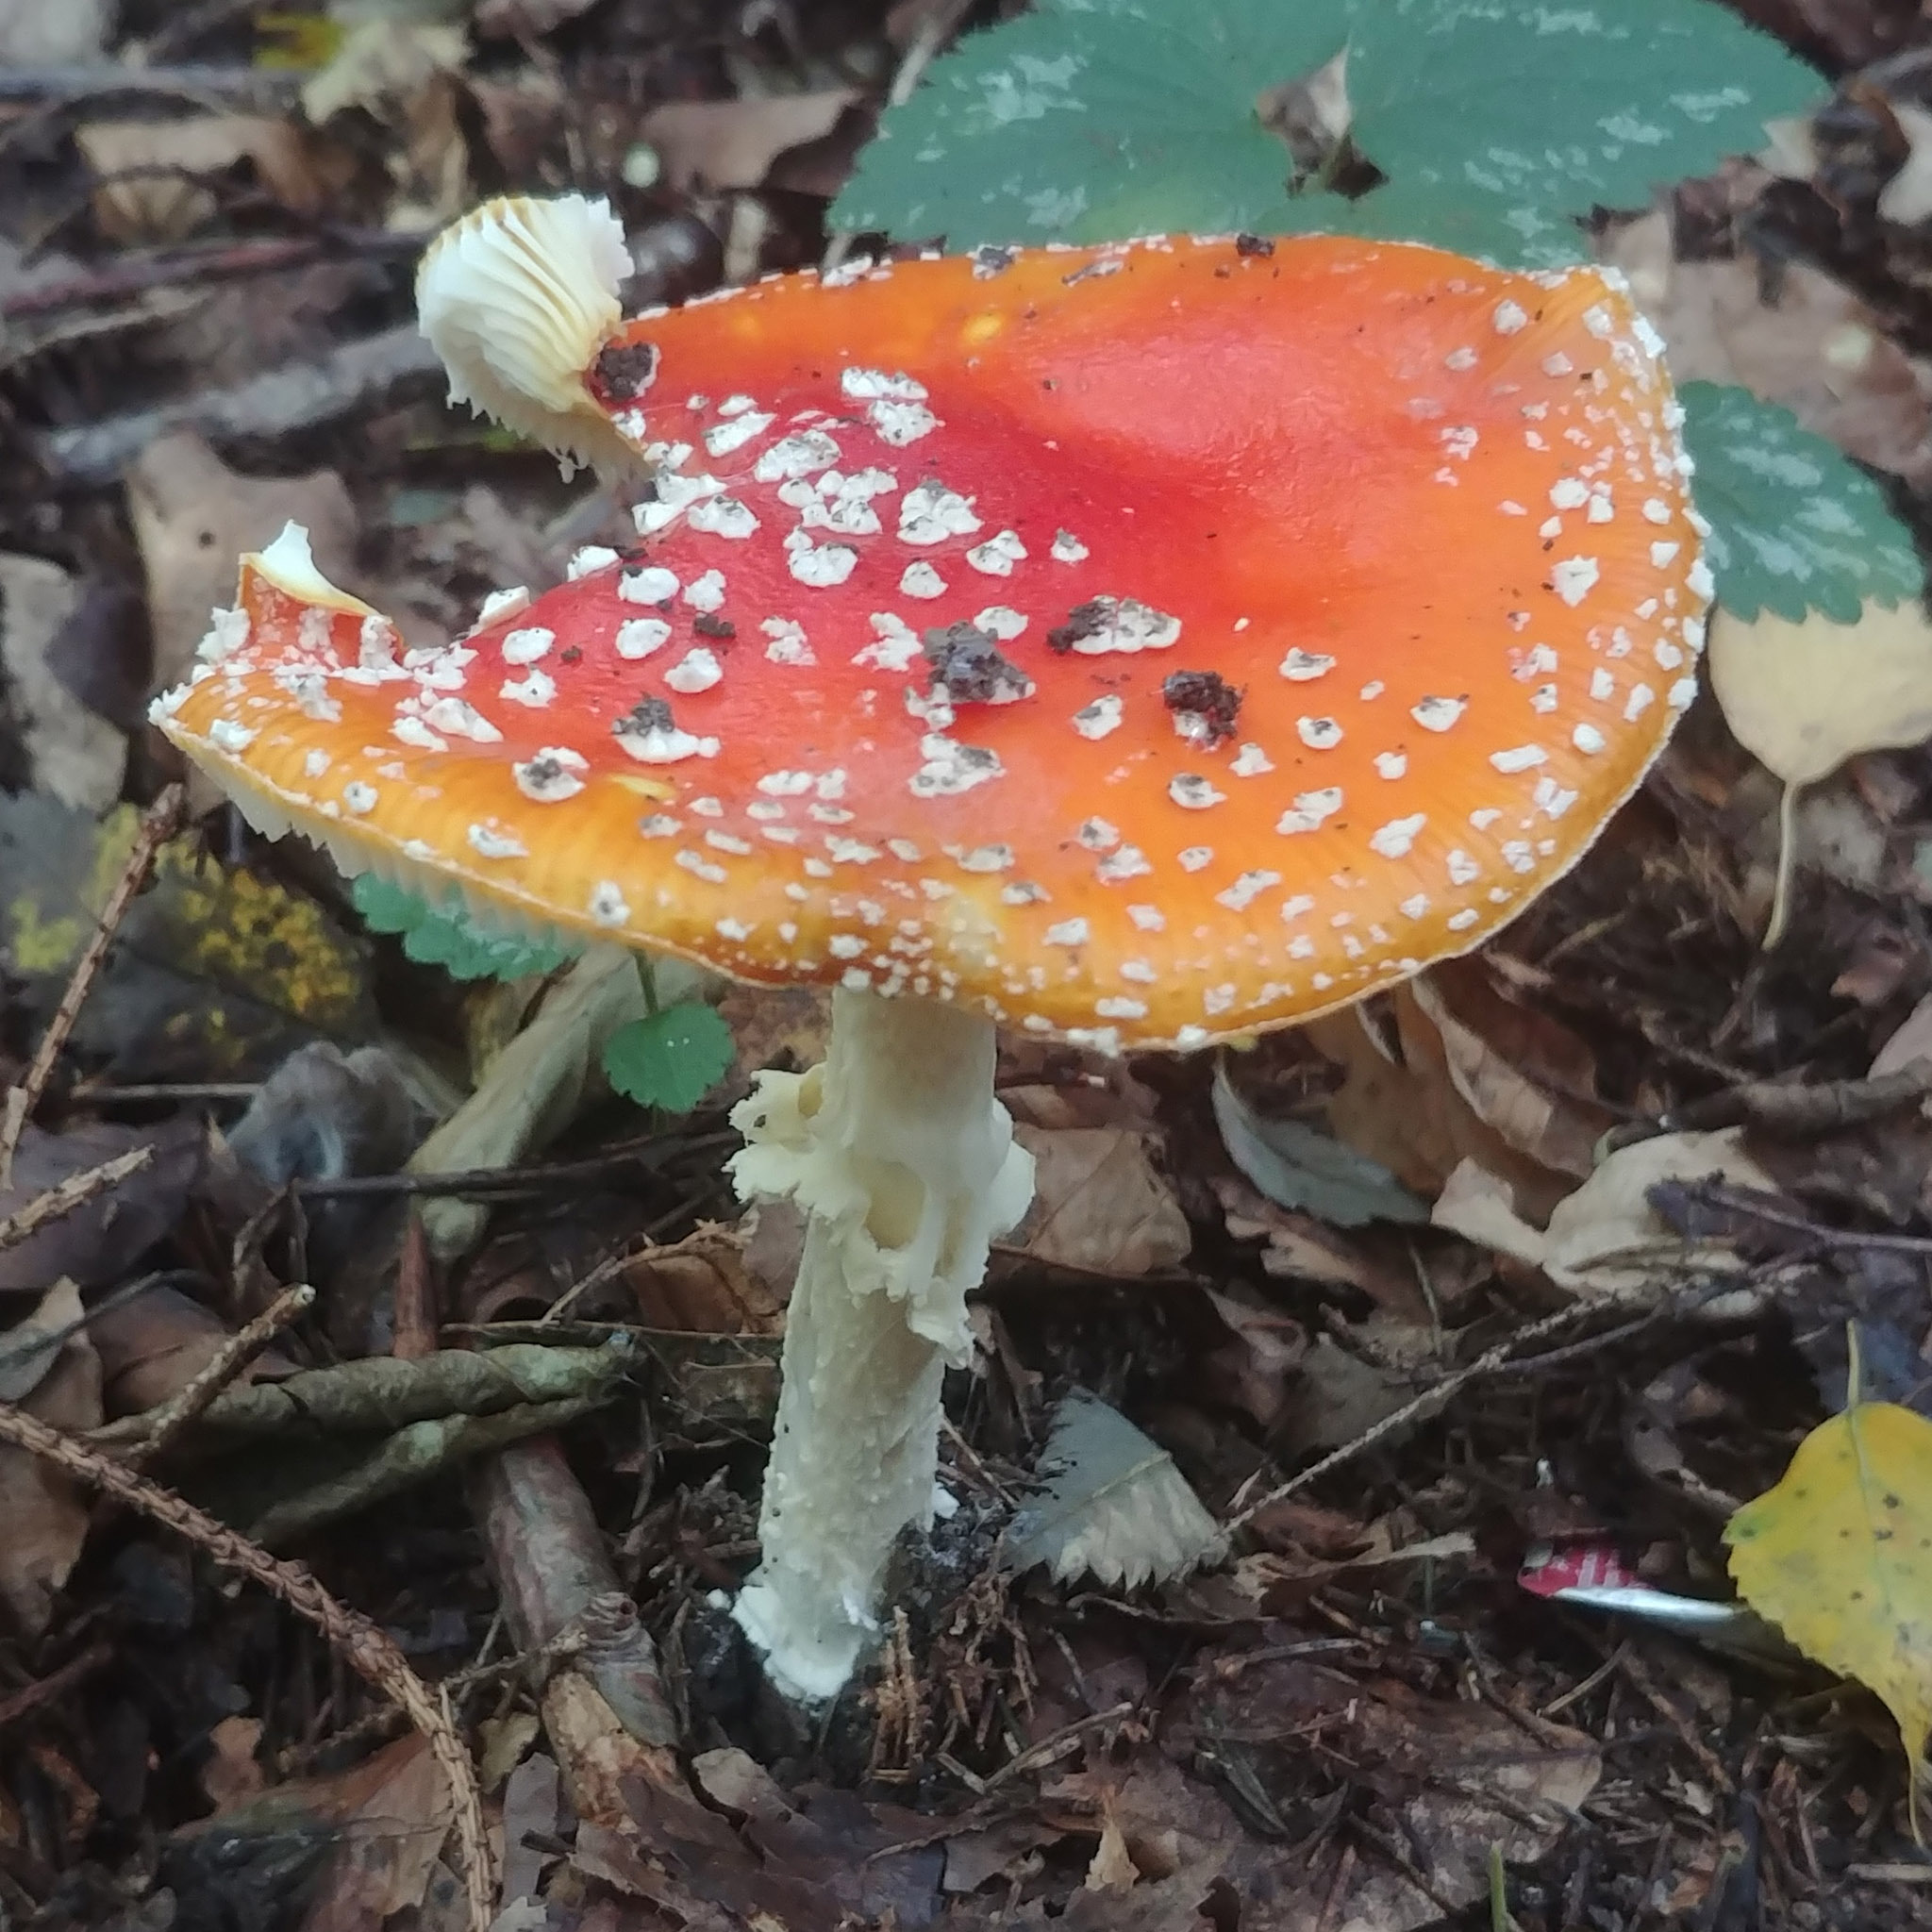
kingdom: Fungi
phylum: Basidiomycota
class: Agaricomycetes
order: Agaricales
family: Amanitaceae
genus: Amanita
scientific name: Amanita muscaria
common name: Fly agaric
